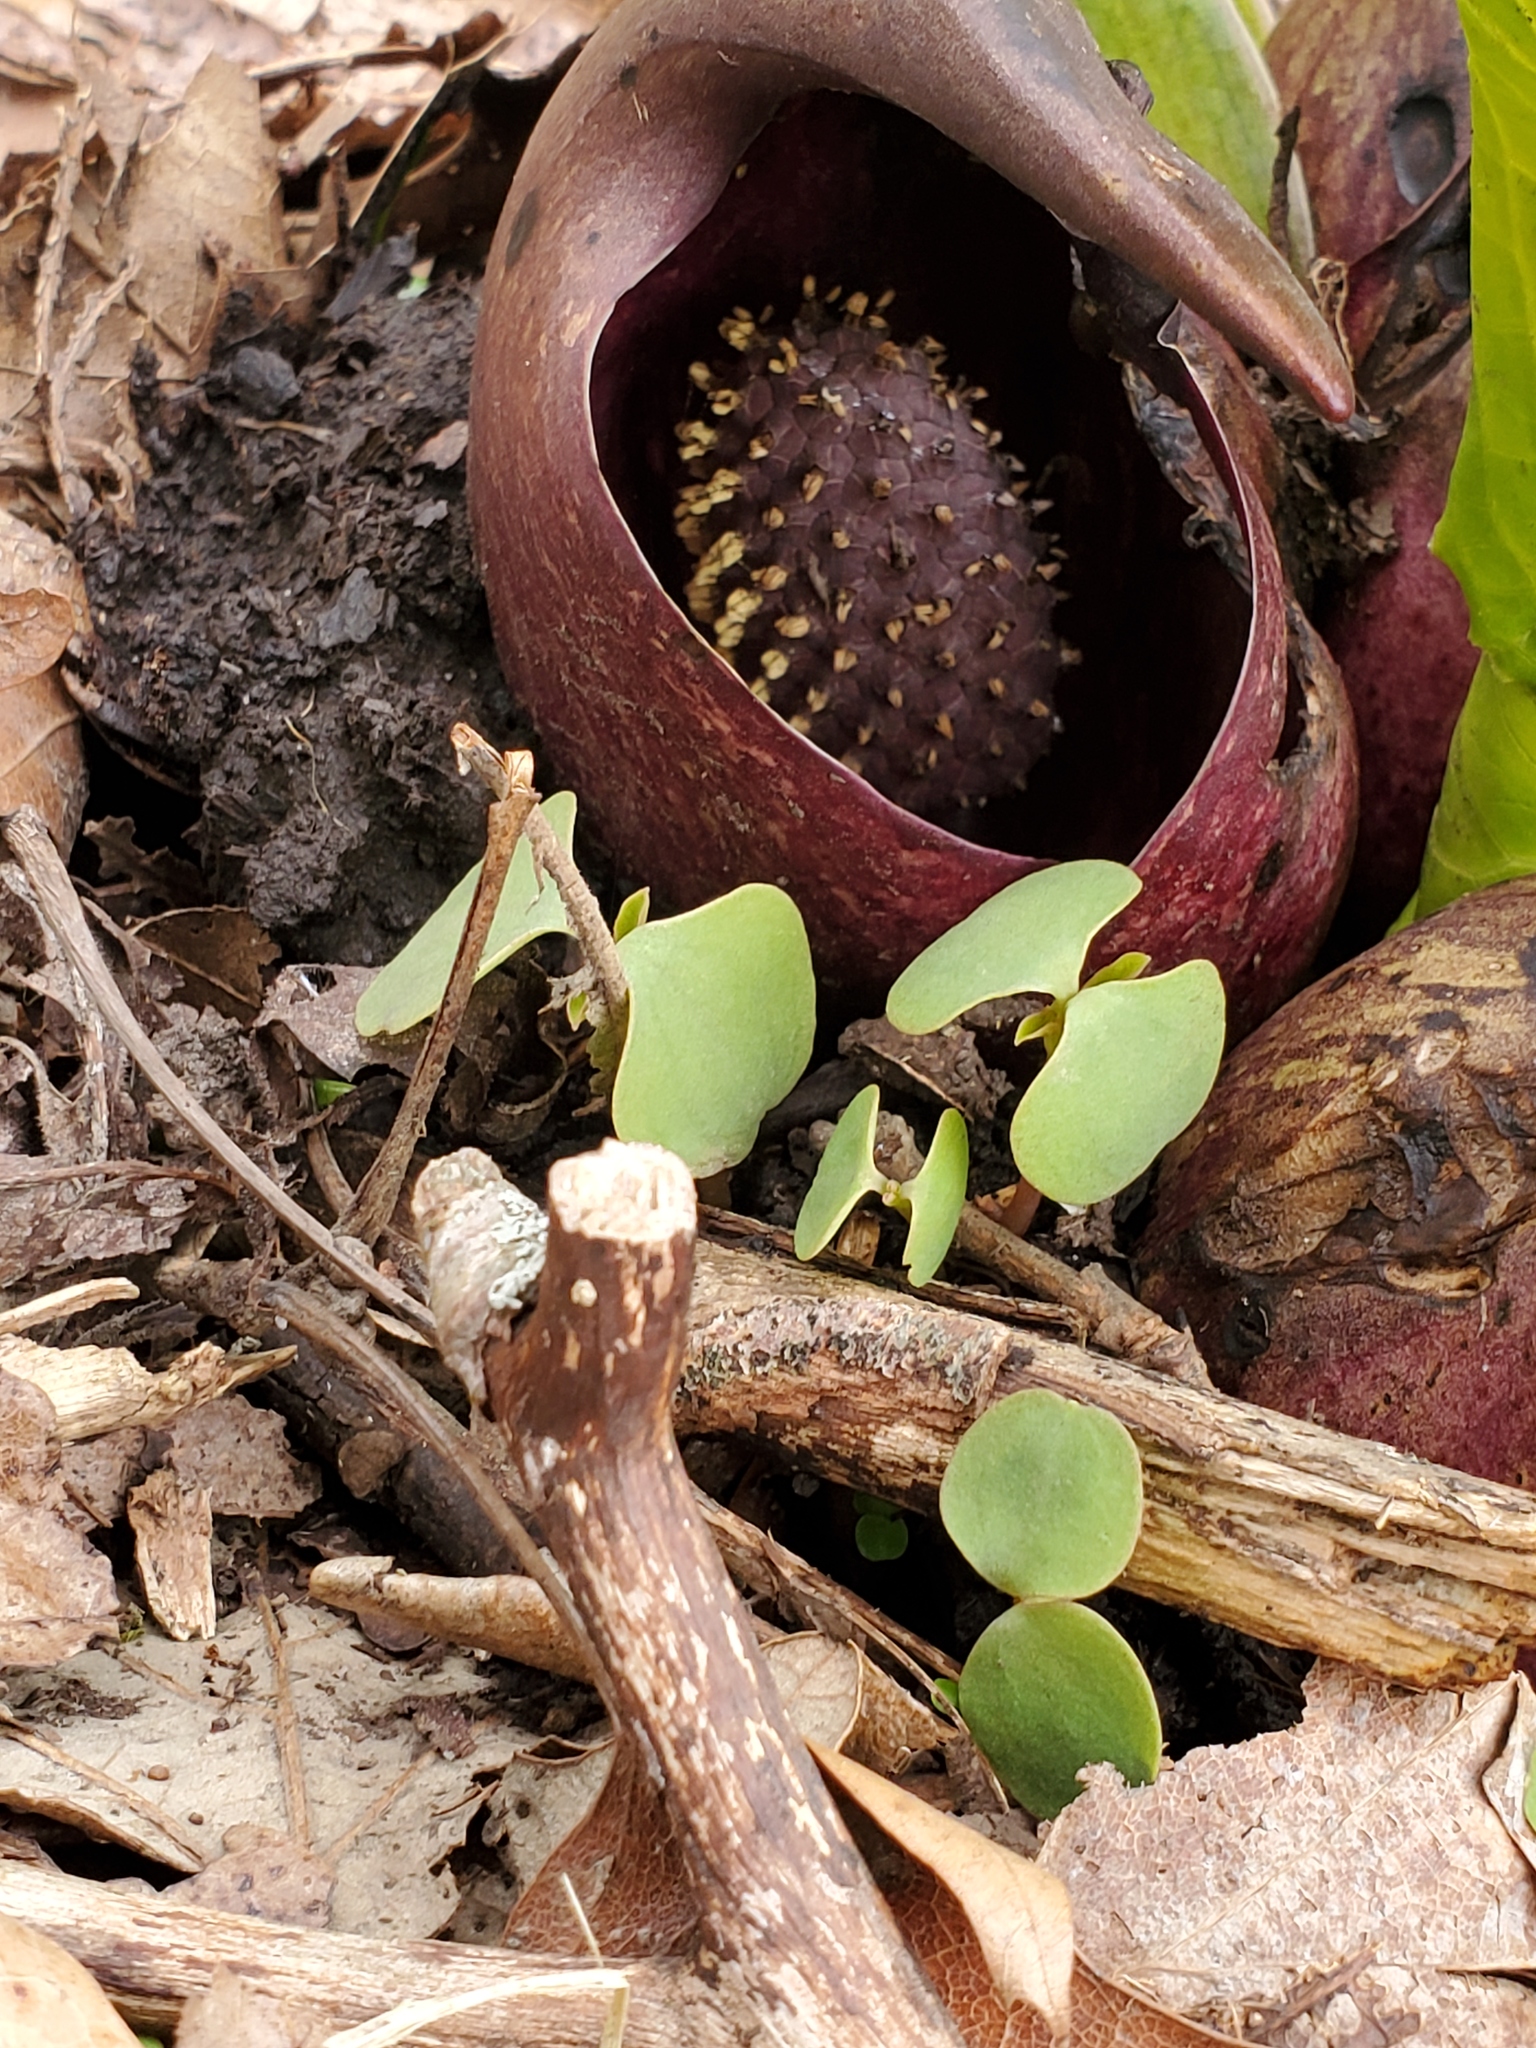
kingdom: Plantae
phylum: Tracheophyta
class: Liliopsida
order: Alismatales
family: Araceae
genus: Symplocarpus
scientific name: Symplocarpus foetidus
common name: Eastern skunk cabbage
